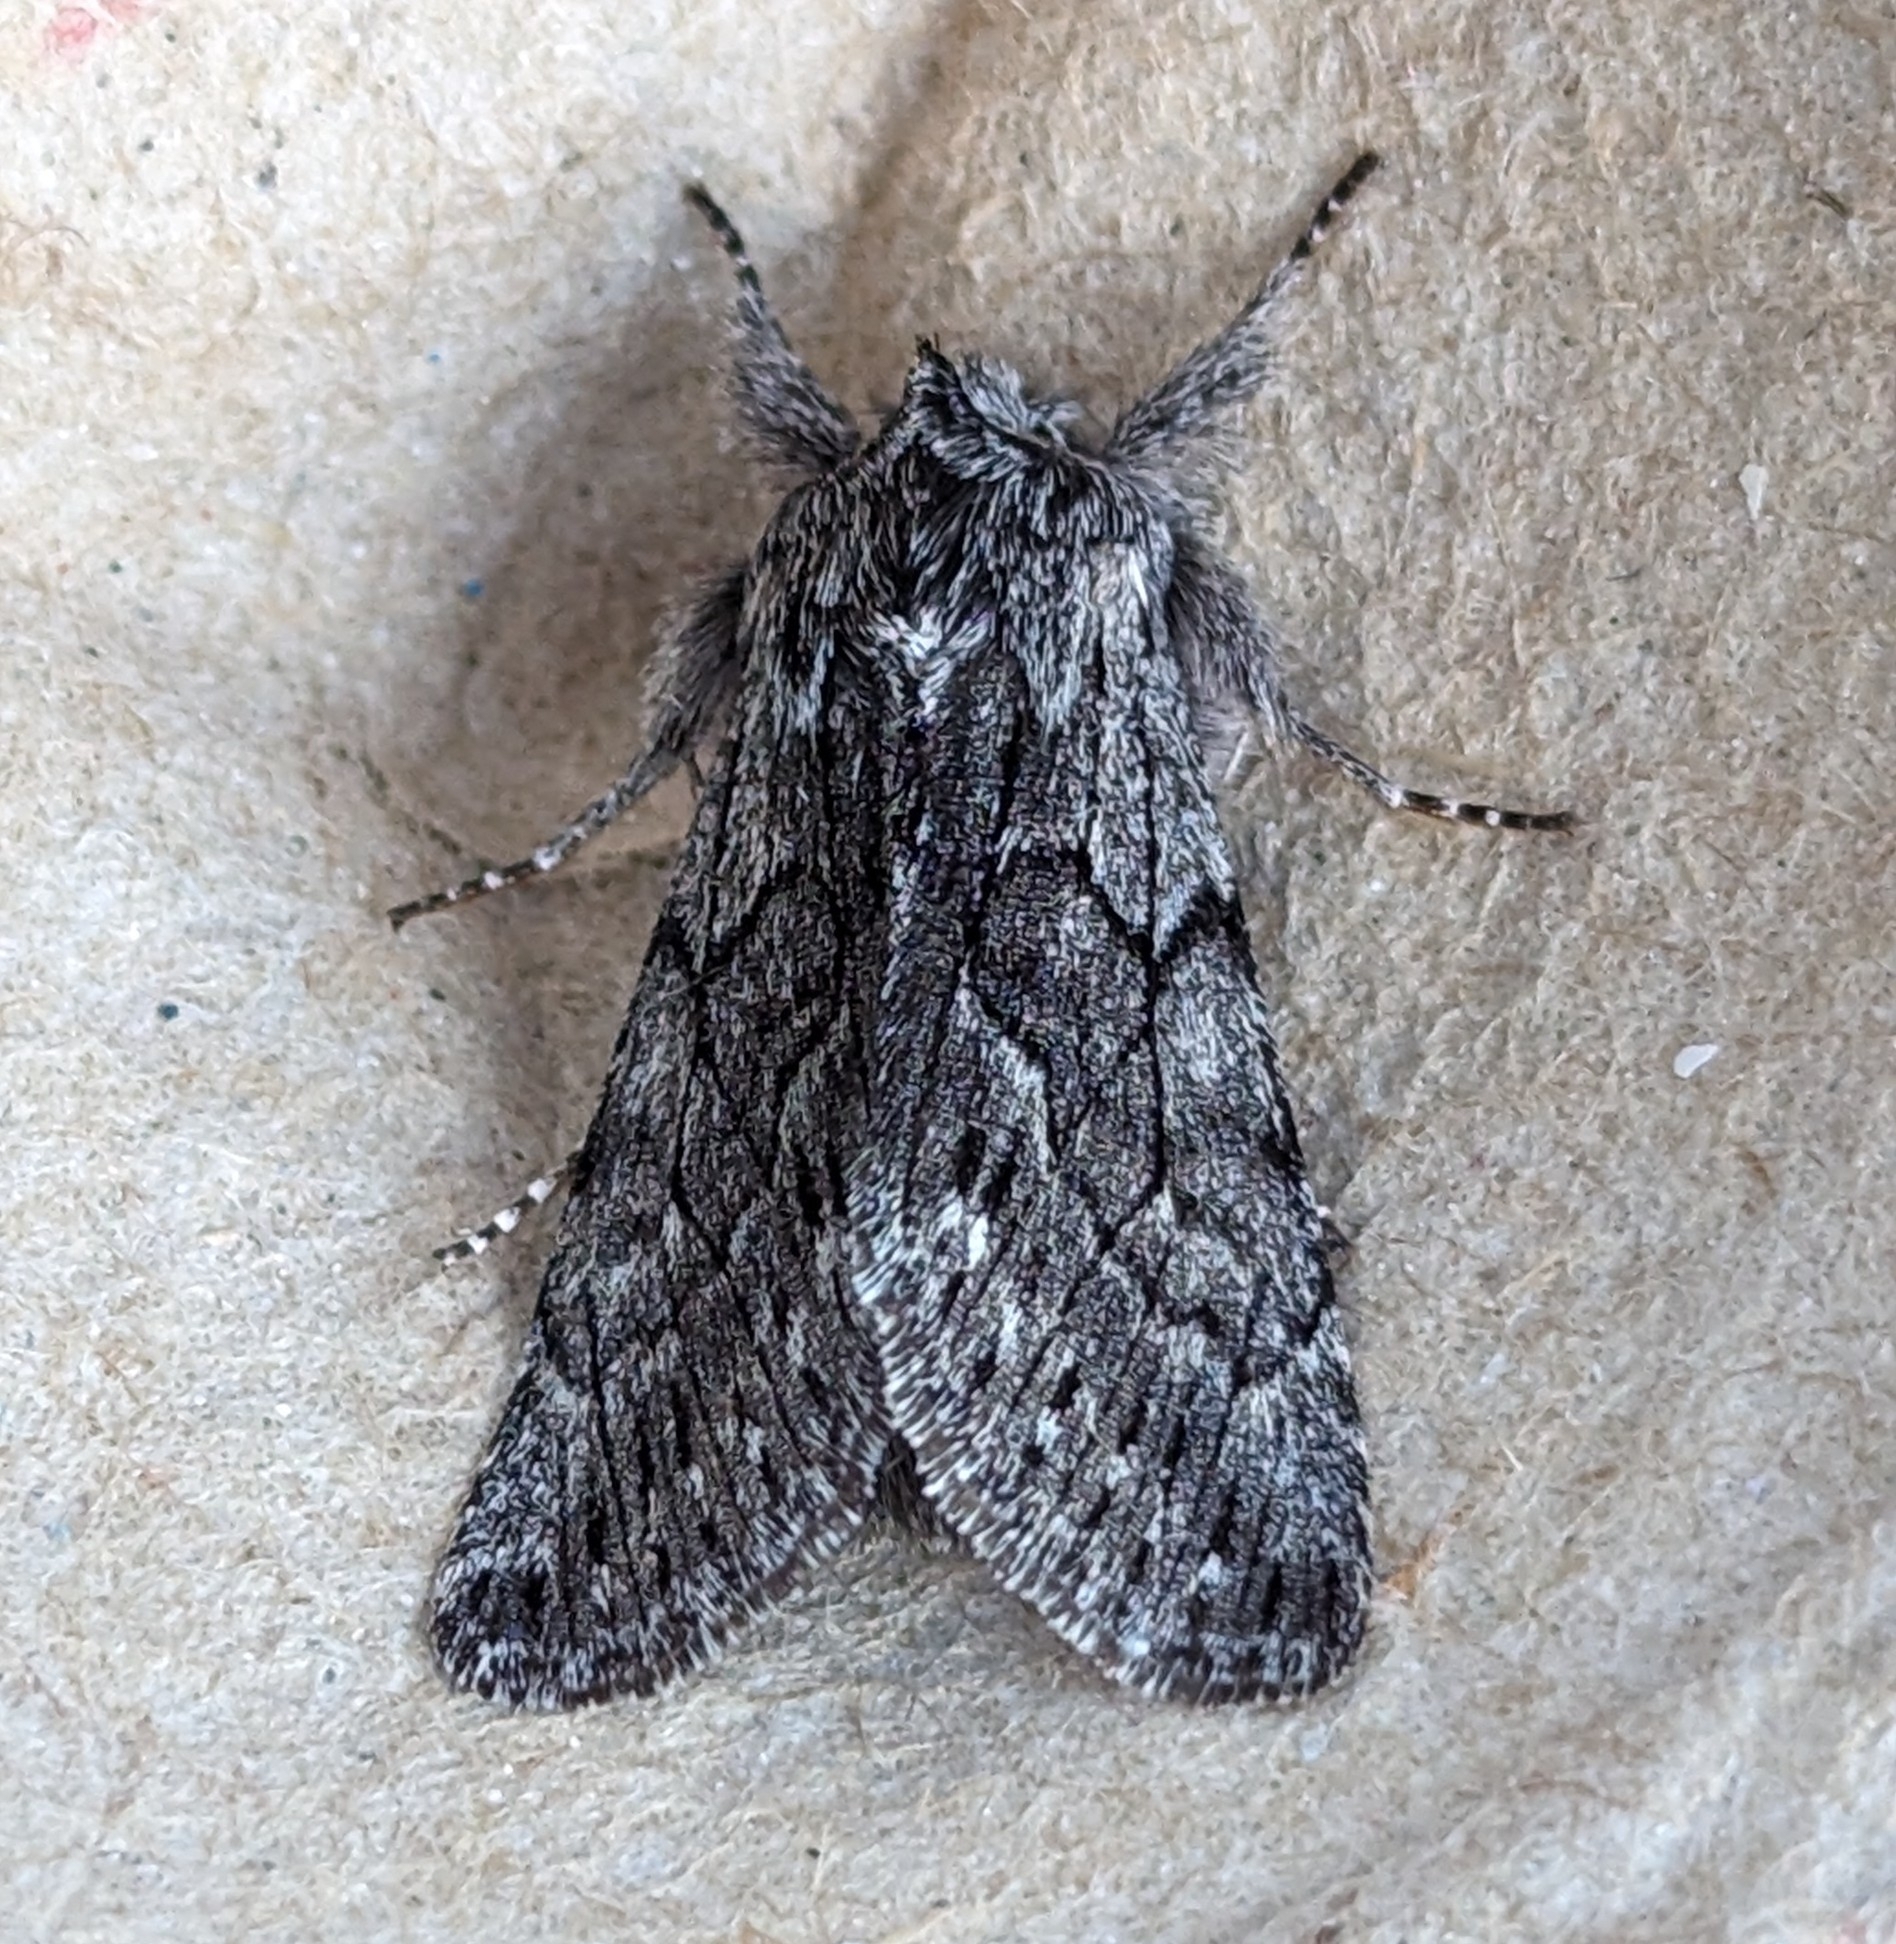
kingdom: Animalia
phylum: Arthropoda
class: Insecta
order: Lepidoptera
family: Noctuidae
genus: Pleromelloida
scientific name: Pleromelloida conserta
